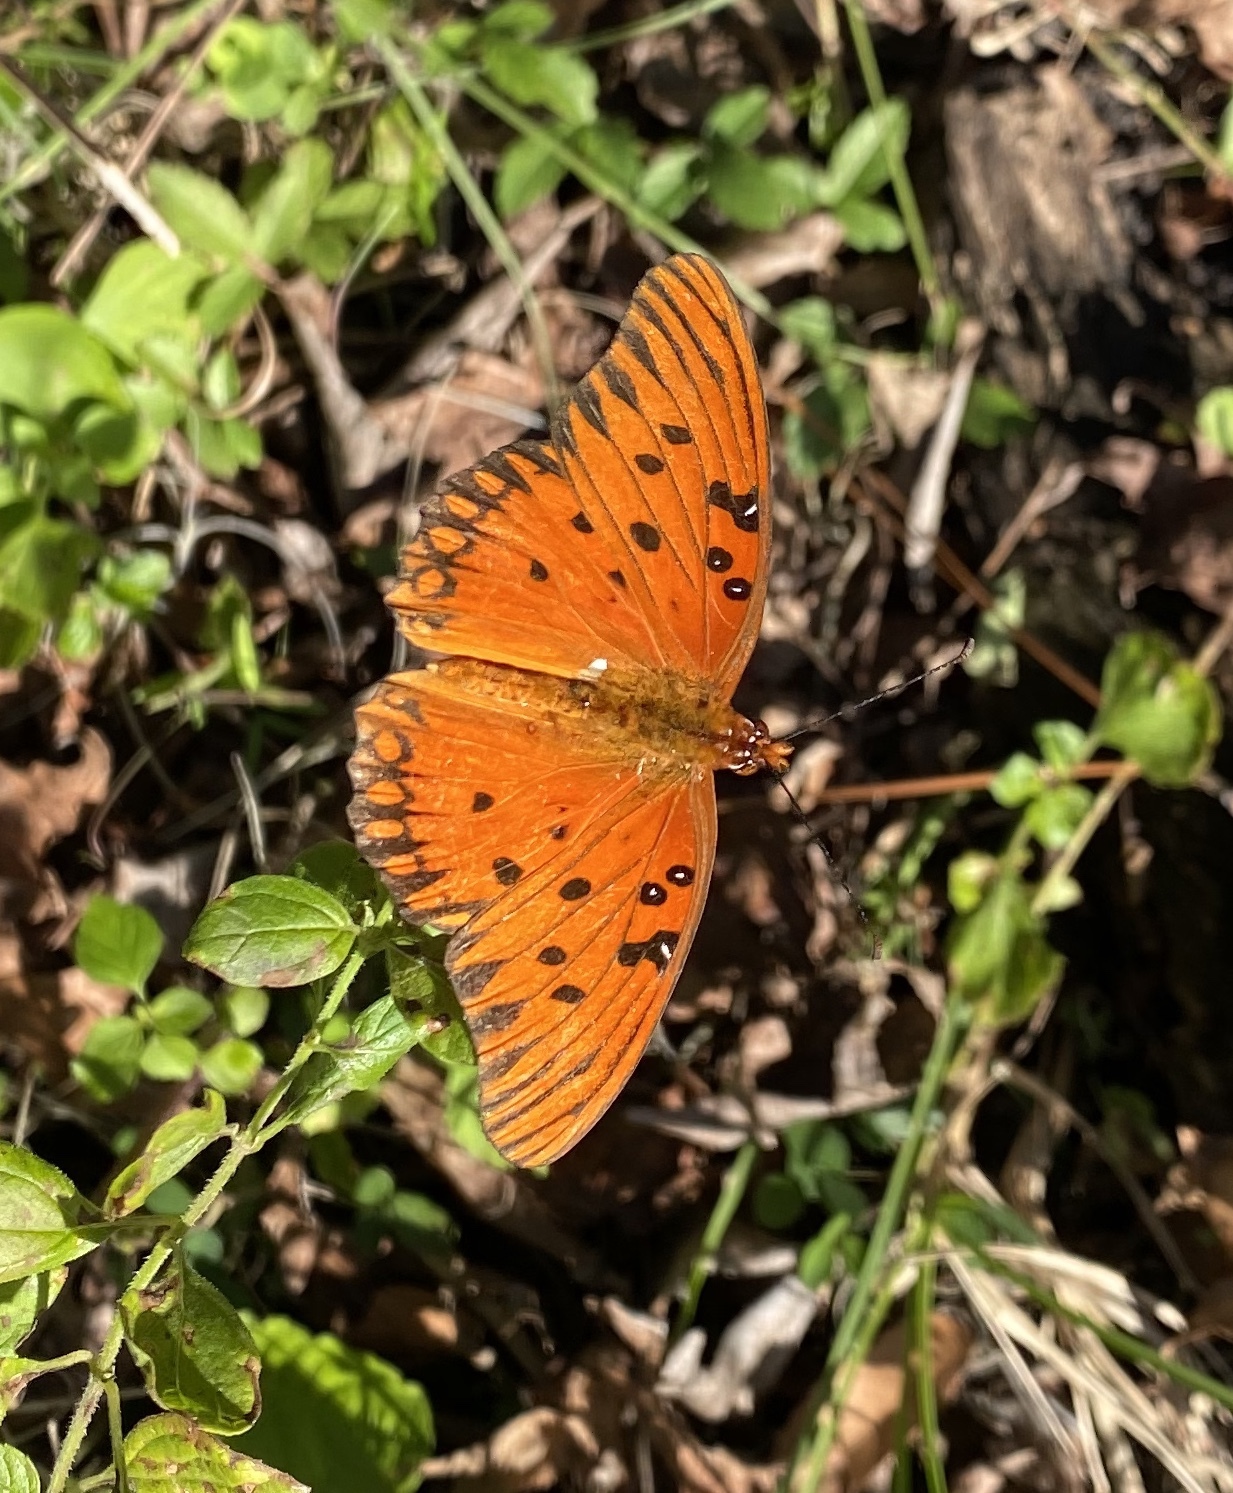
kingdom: Animalia
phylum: Arthropoda
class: Insecta
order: Lepidoptera
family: Nymphalidae
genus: Dione
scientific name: Dione vanillae
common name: Gulf fritillary
